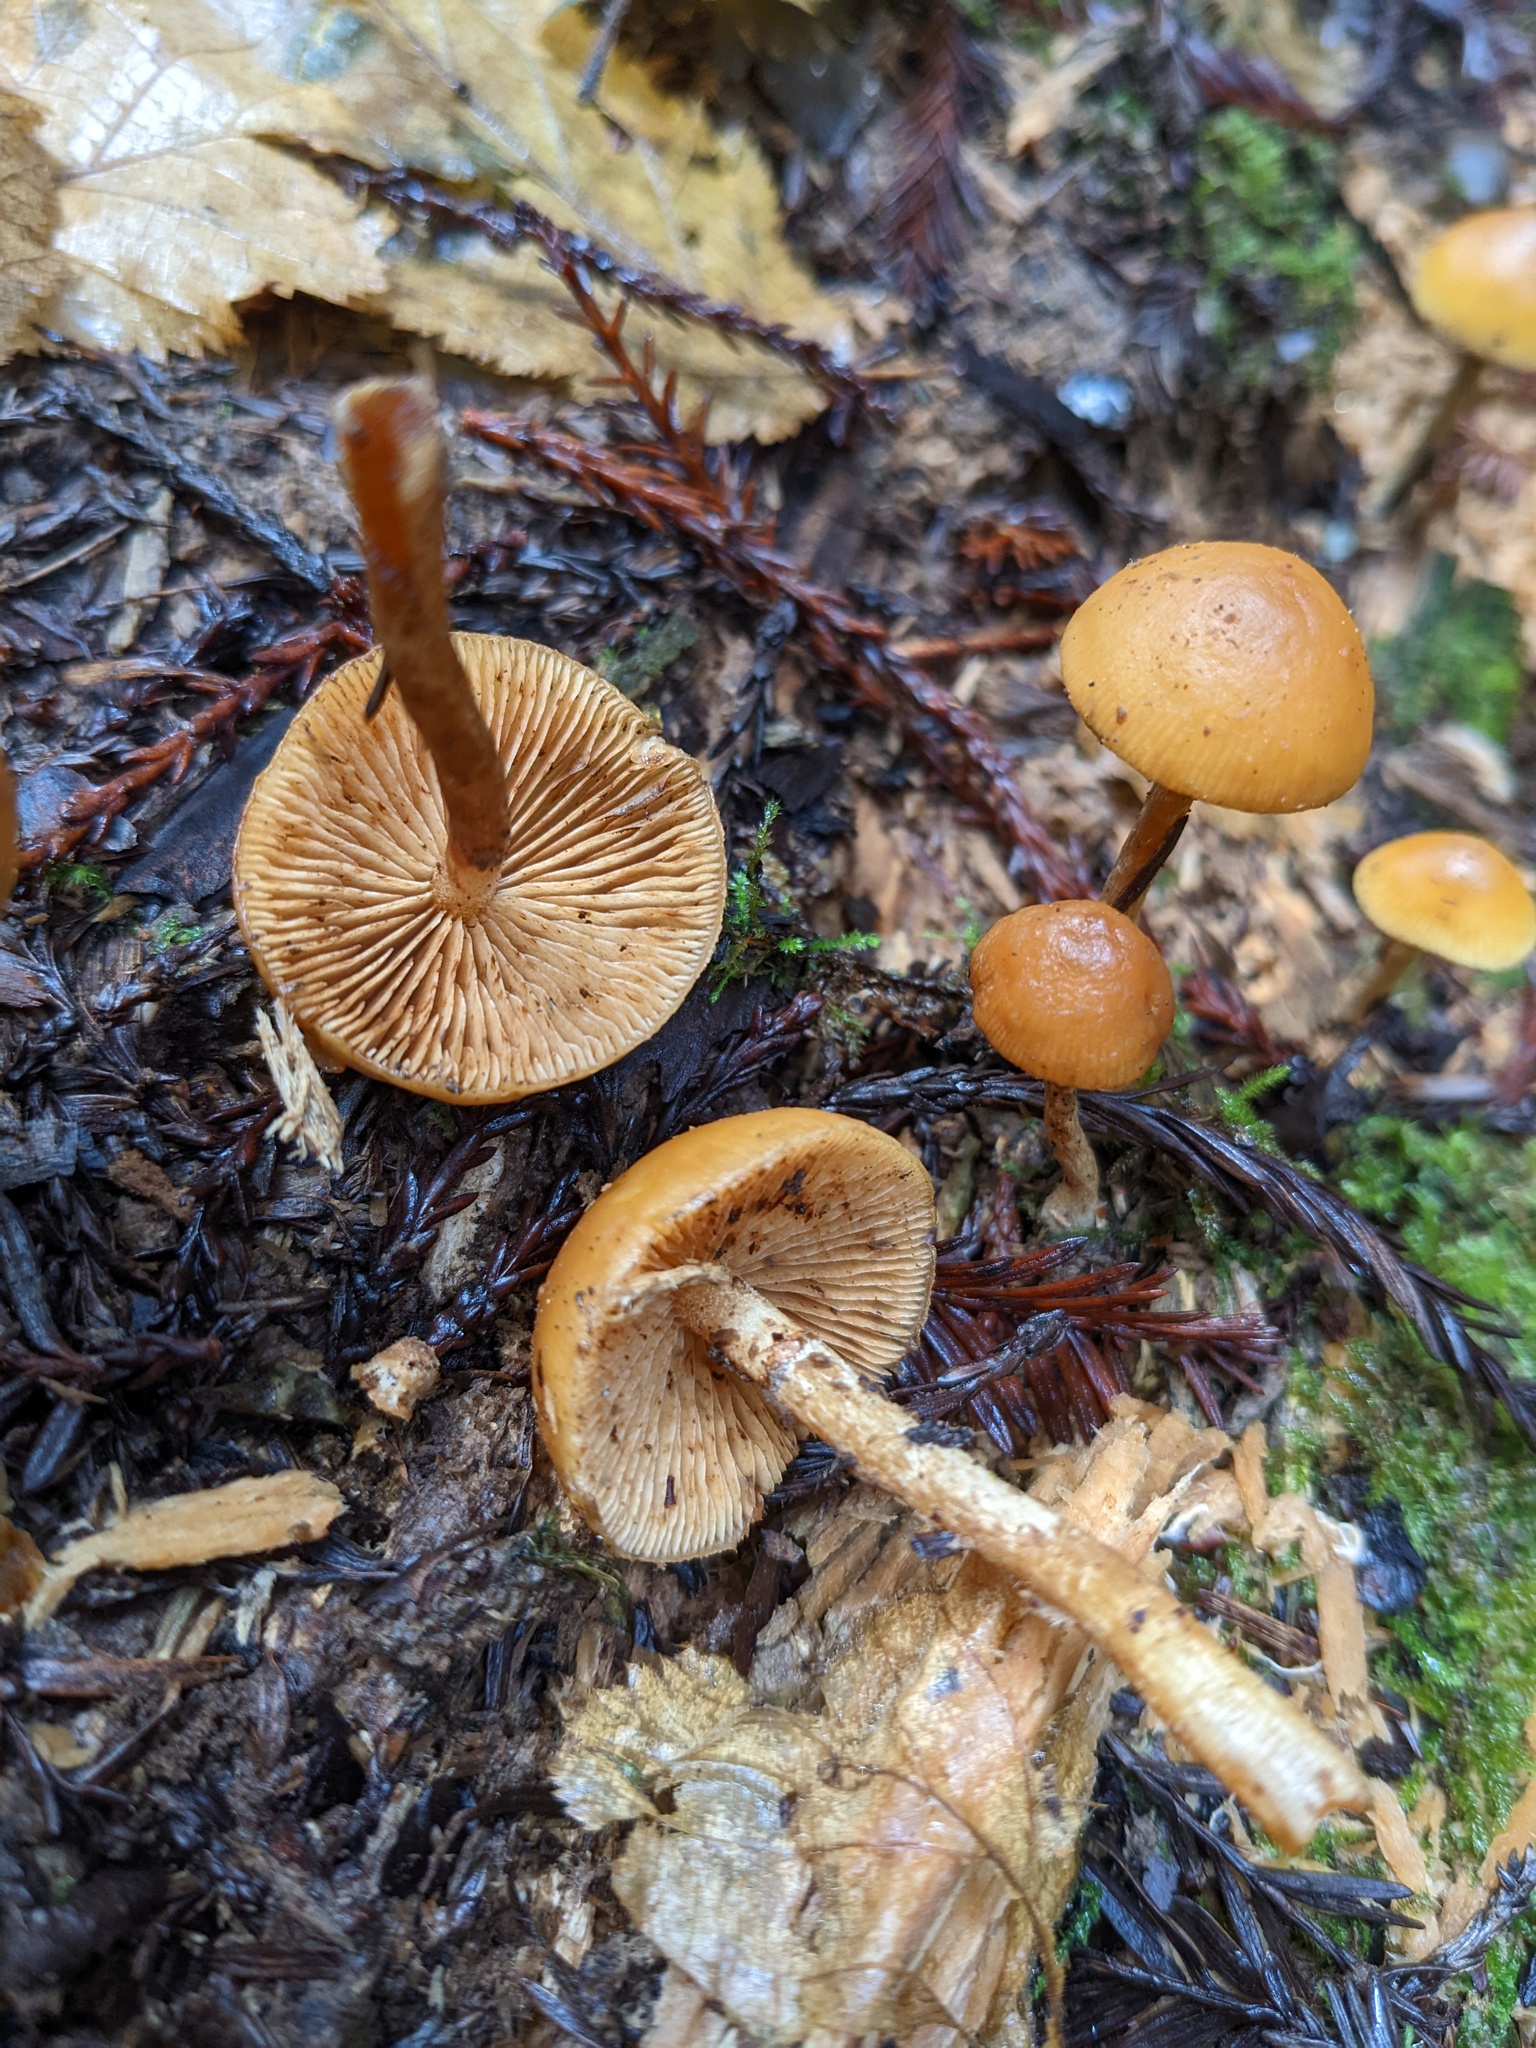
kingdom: Fungi
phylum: Basidiomycota
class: Agaricomycetes
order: Agaricales
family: Hymenogastraceae
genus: Galerina
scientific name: Galerina marginata
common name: Funeral bell
